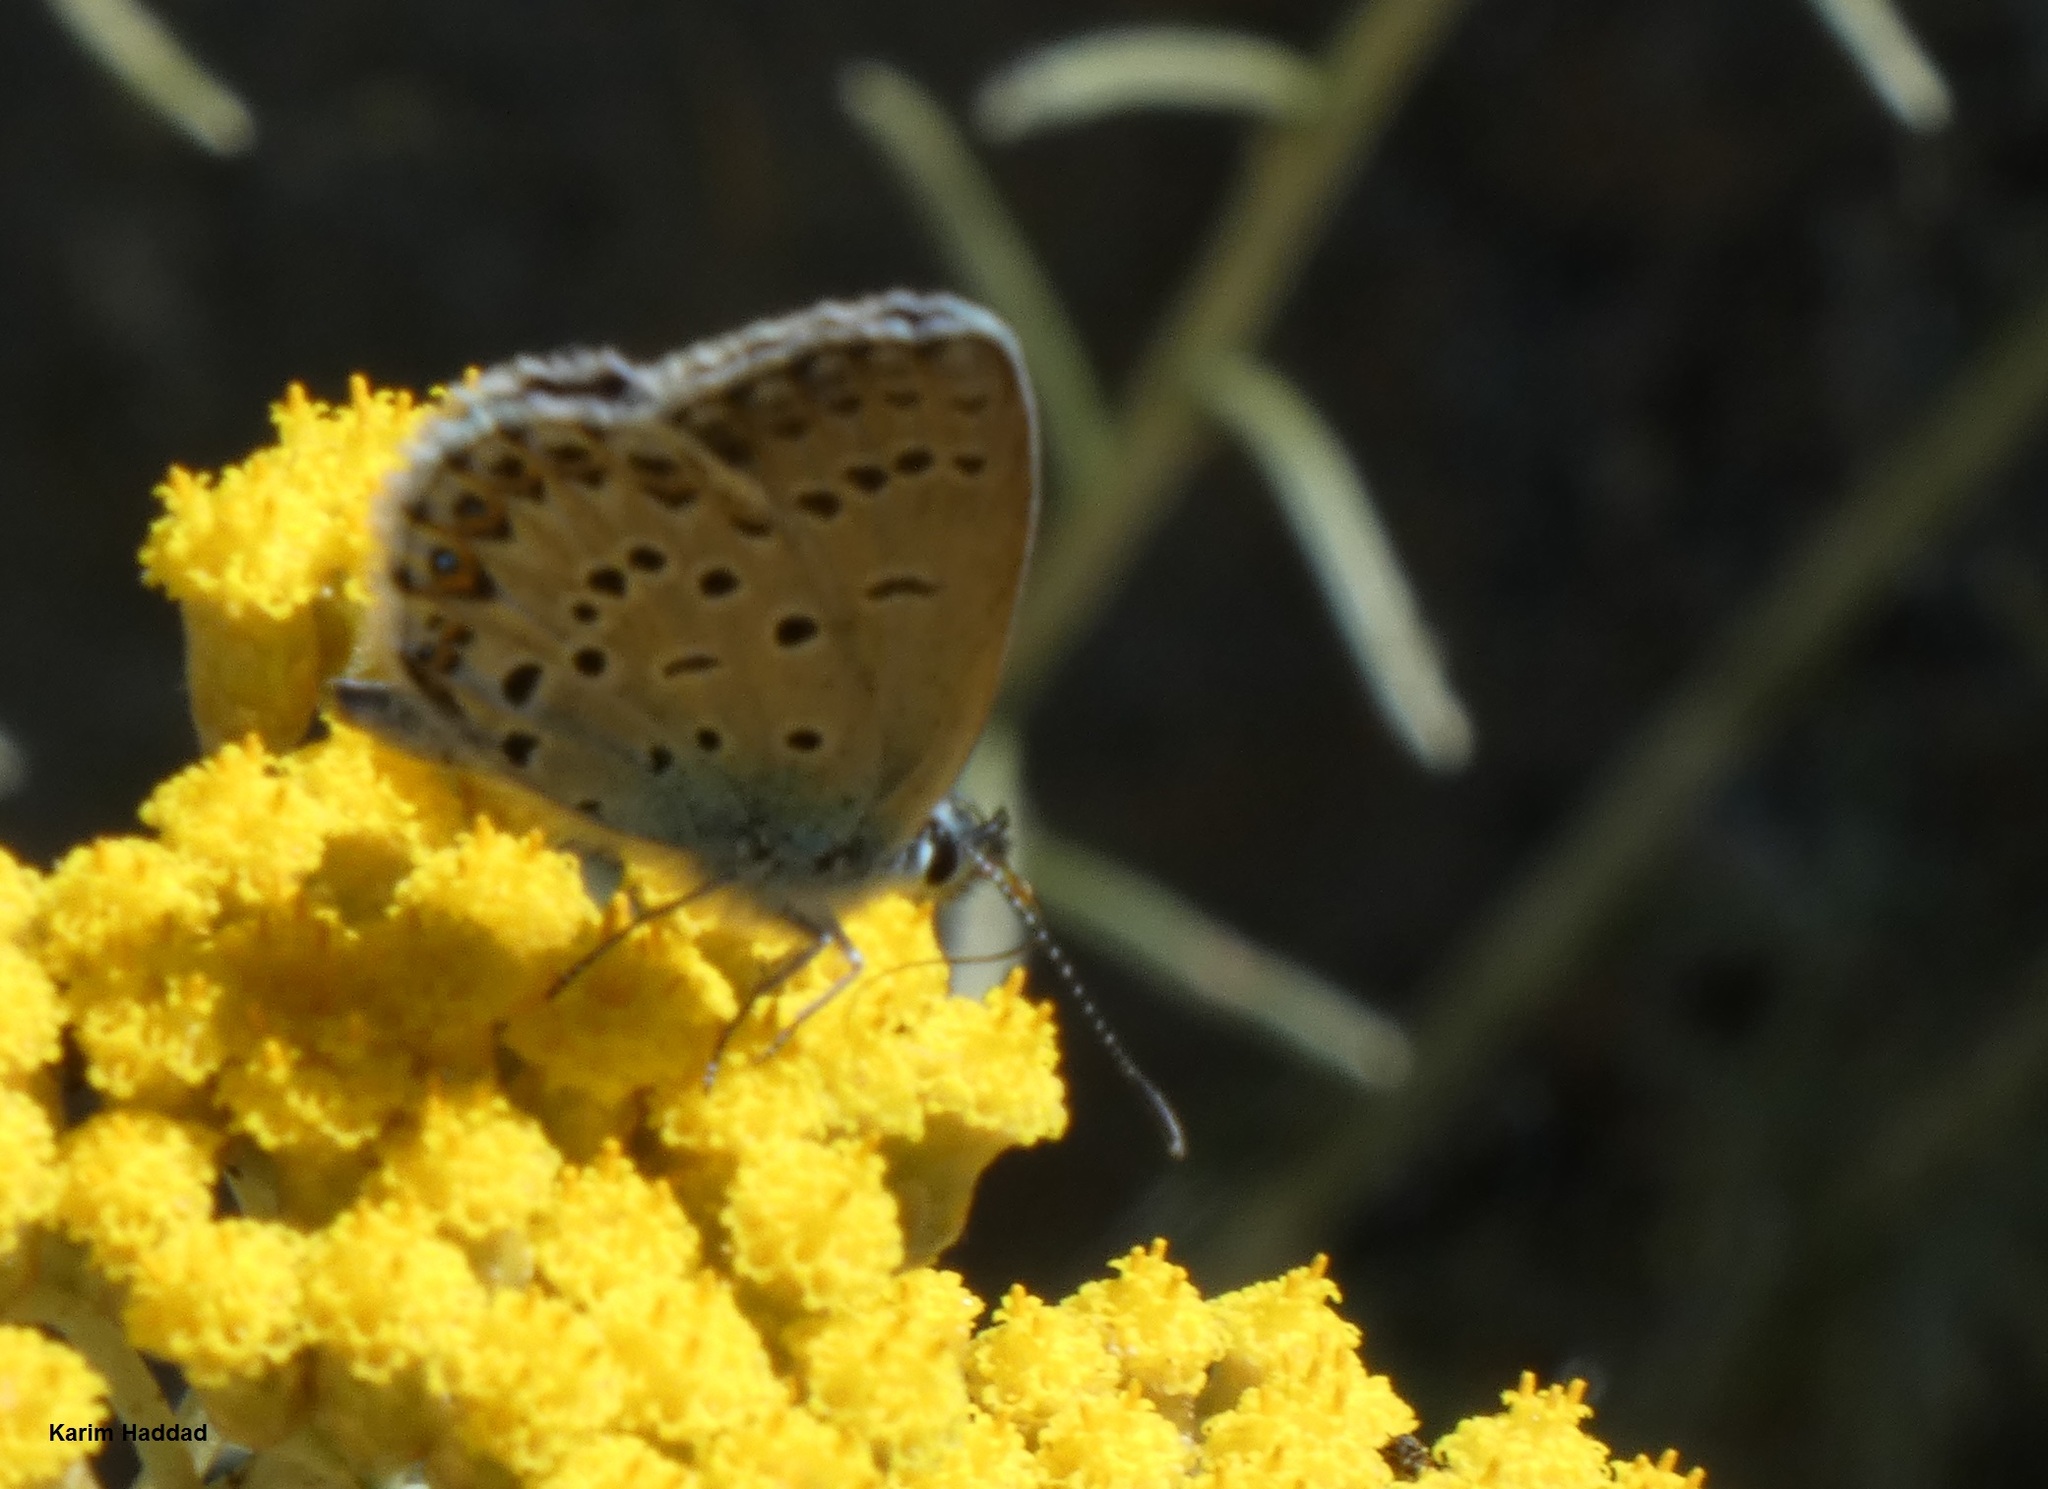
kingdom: Animalia
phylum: Arthropoda
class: Insecta
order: Lepidoptera
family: Lycaenidae
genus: Lycaeides
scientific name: Lycaeides idas
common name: Northern blue
